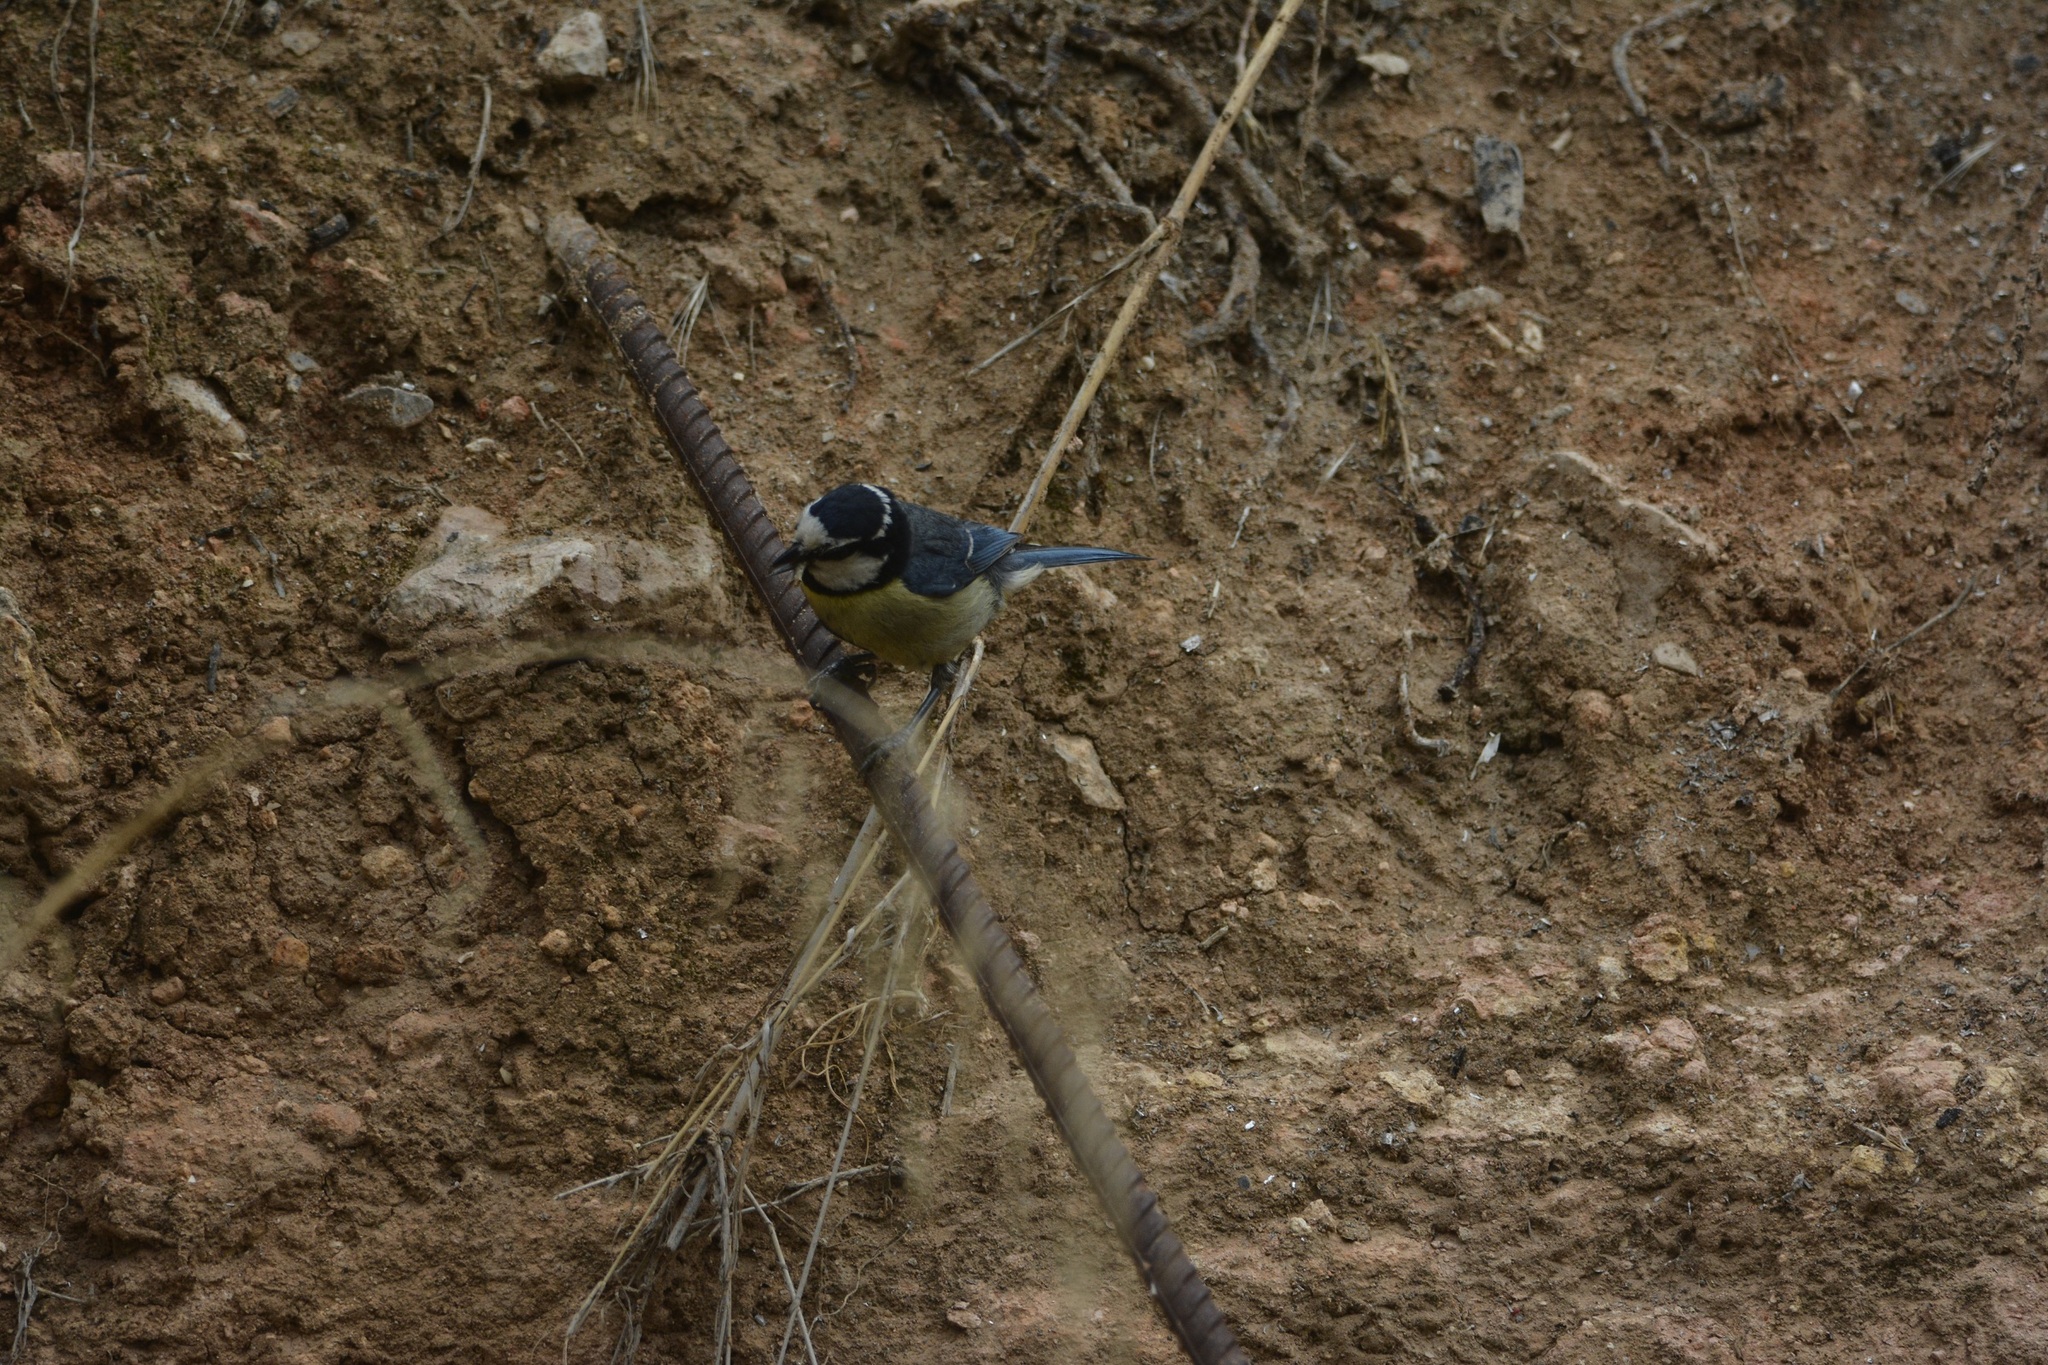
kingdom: Animalia
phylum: Chordata
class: Aves
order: Passeriformes
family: Paridae
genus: Cyanistes
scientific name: Cyanistes teneriffae
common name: African blue tit
